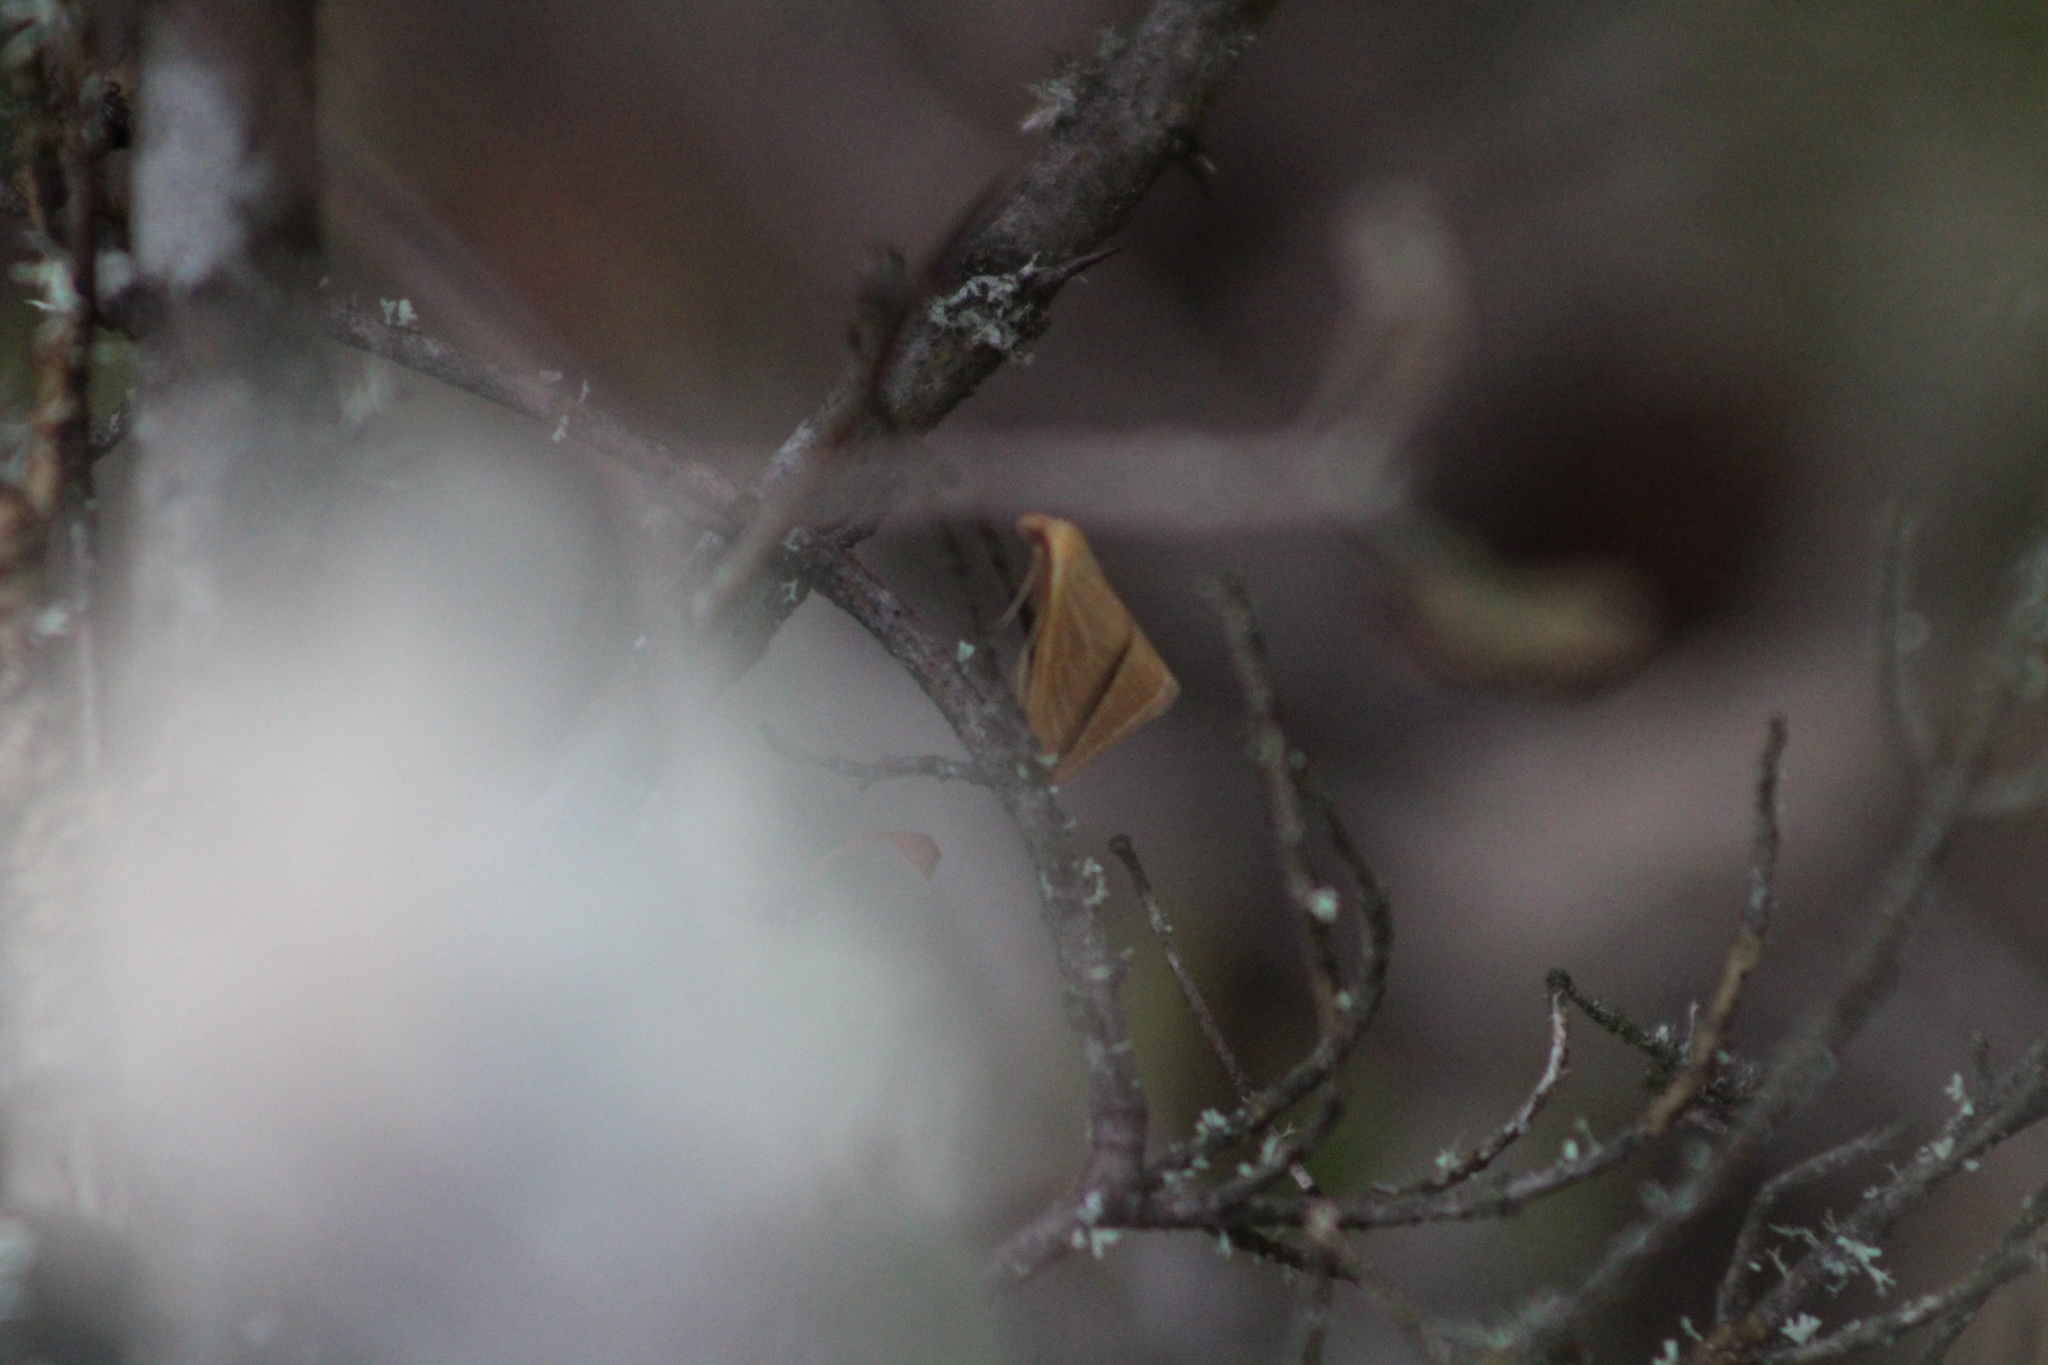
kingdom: Animalia
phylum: Arthropoda
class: Insecta
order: Lepidoptera
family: Geometridae
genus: Rhodometra
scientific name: Rhodometra sacraria
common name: Vestal
